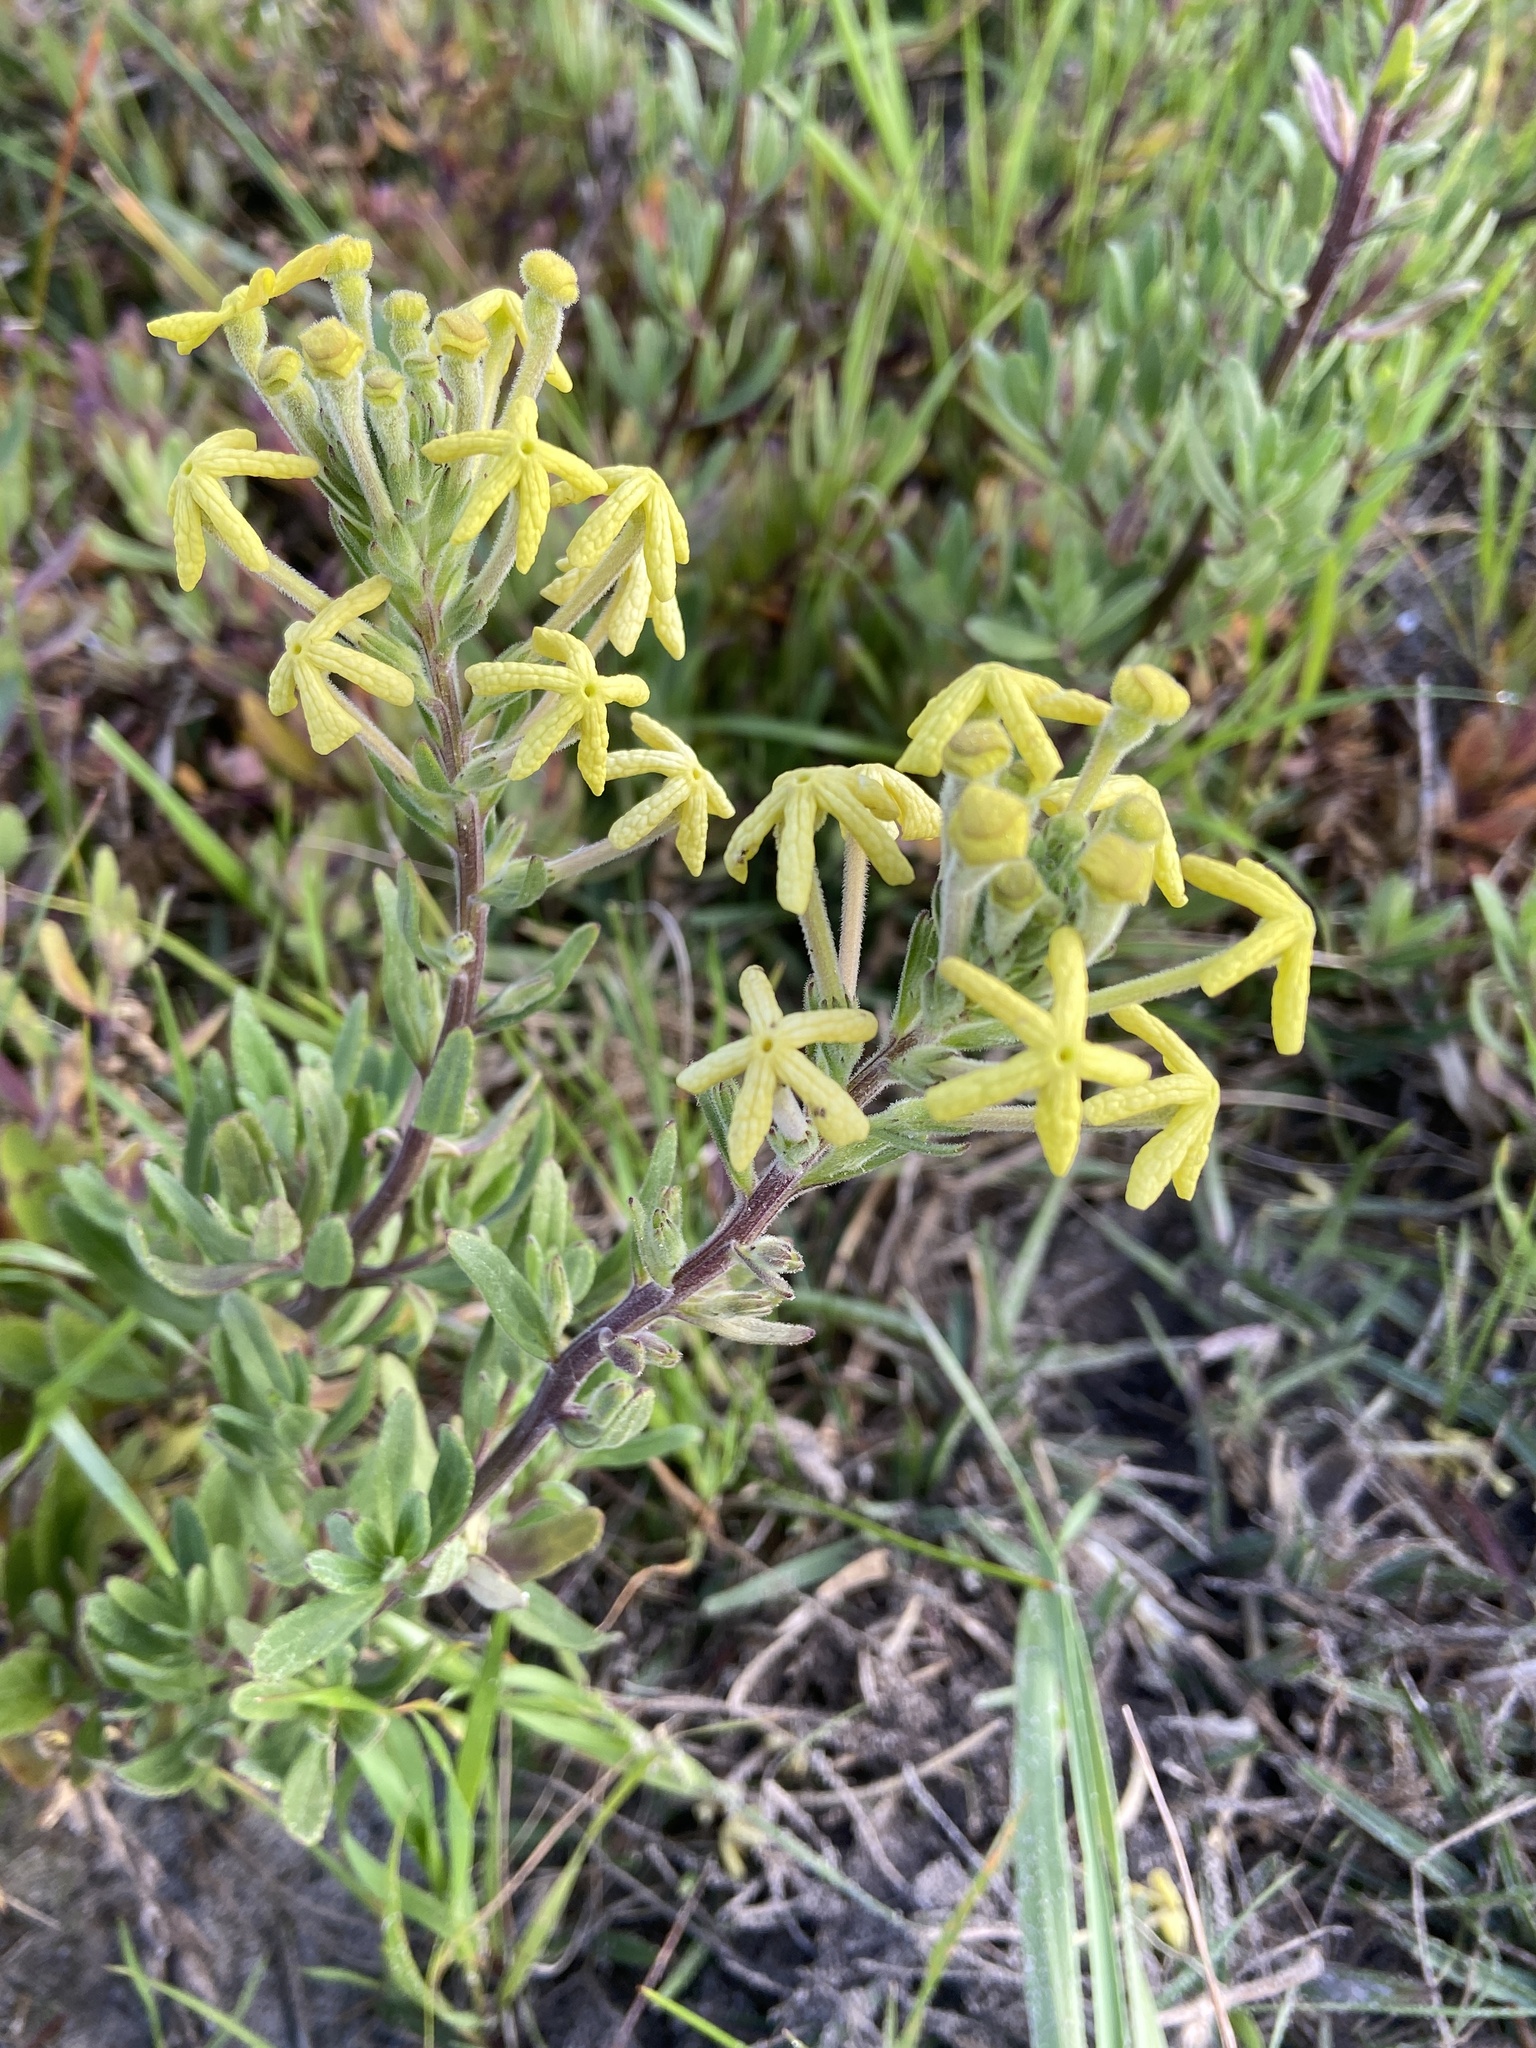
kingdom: Plantae
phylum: Tracheophyta
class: Magnoliopsida
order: Lamiales
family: Scrophulariaceae
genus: Lyperia
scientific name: Lyperia lychnidea
